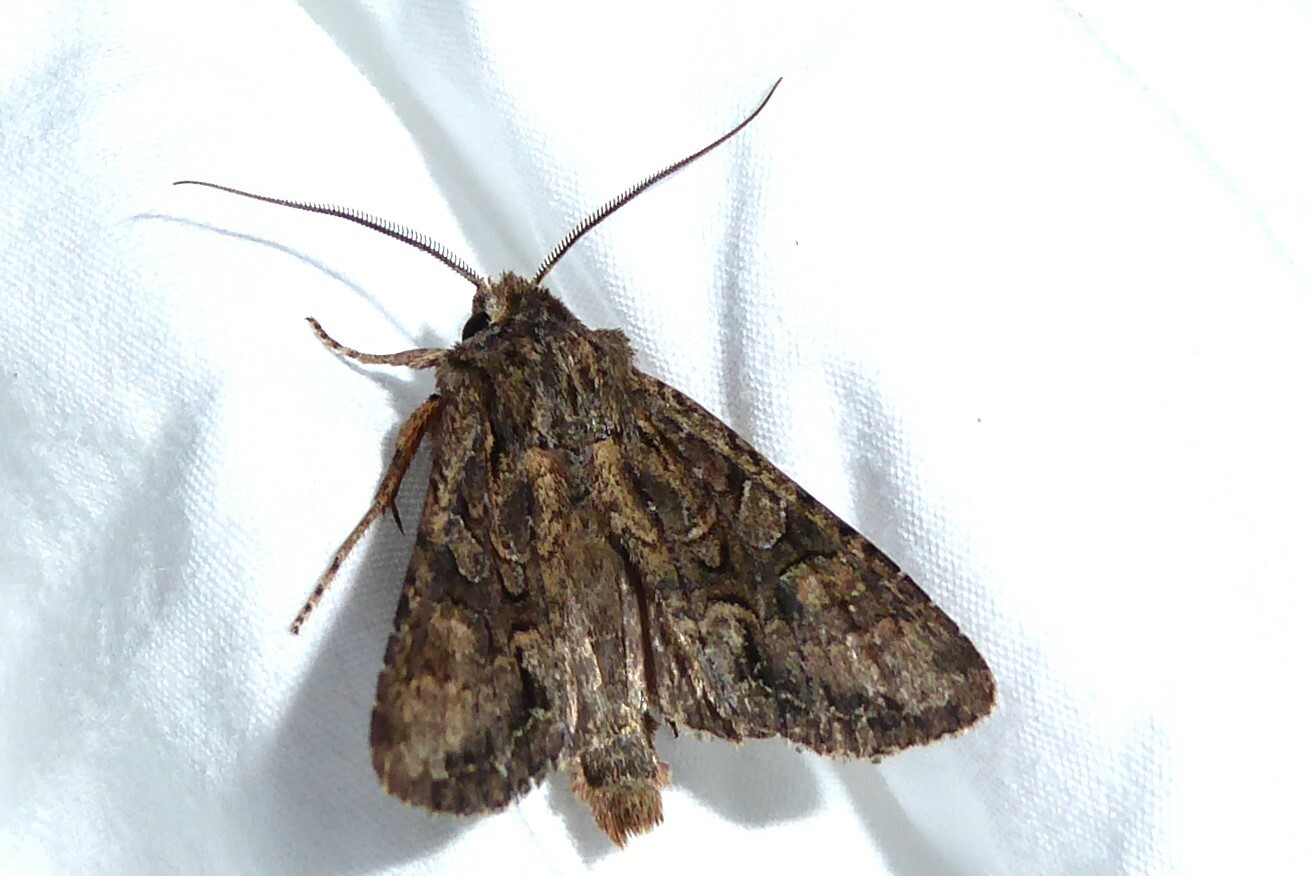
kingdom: Animalia
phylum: Arthropoda
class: Insecta
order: Lepidoptera
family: Noctuidae
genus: Ichneutica
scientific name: Ichneutica mutans
